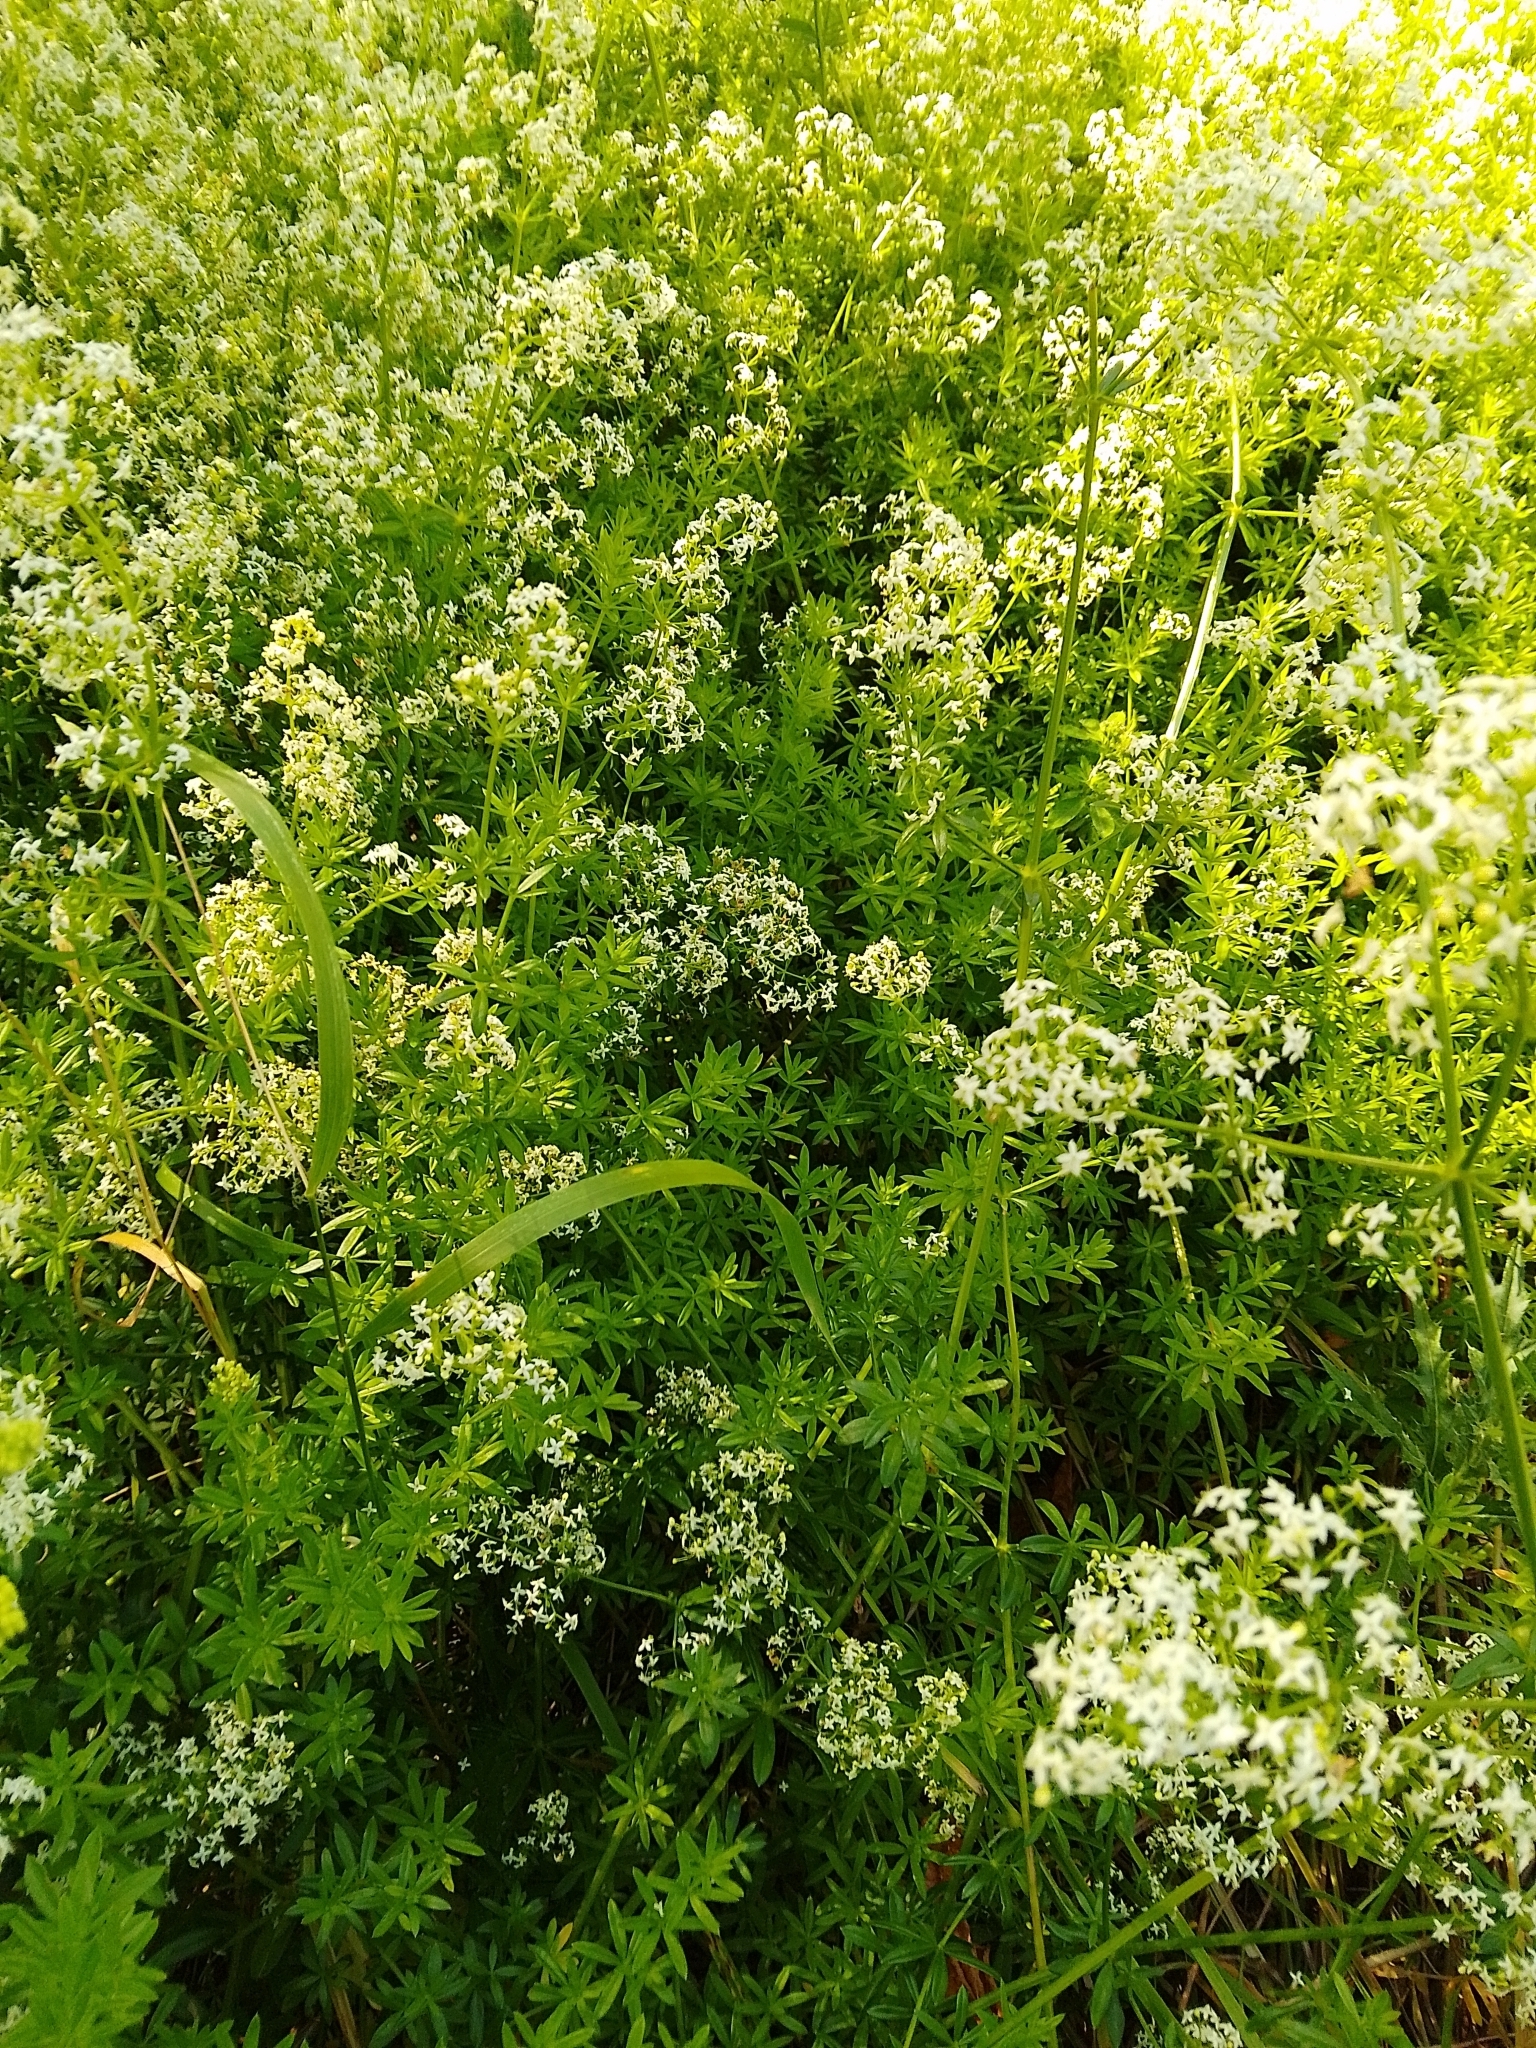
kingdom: Plantae
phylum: Tracheophyta
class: Magnoliopsida
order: Gentianales
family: Rubiaceae
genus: Galium
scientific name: Galium mollugo
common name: Hedge bedstraw
